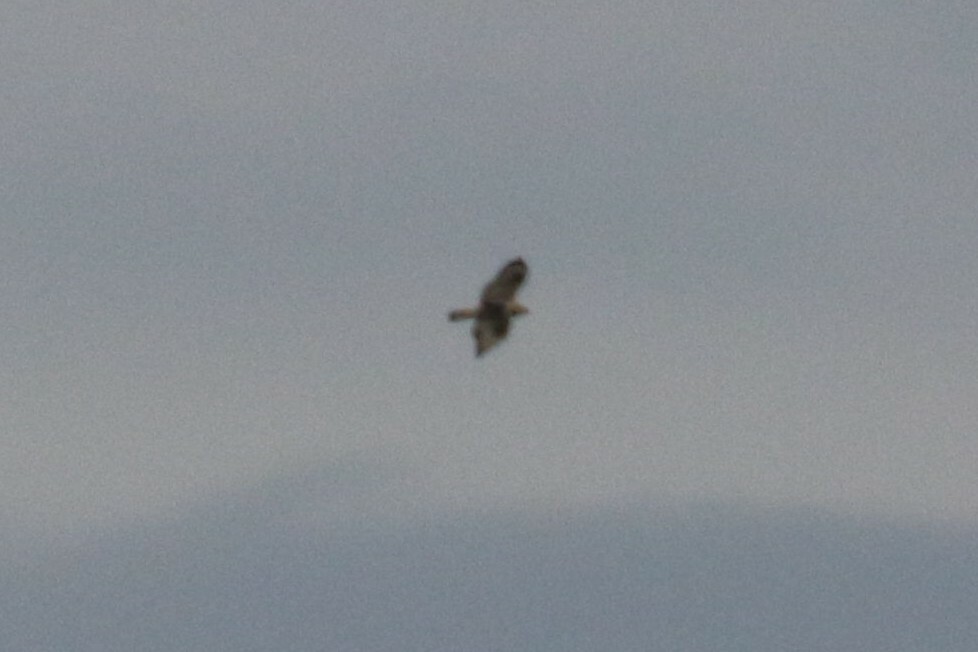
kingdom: Animalia
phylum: Chordata
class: Aves
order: Accipitriformes
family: Accipitridae
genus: Buteo
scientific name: Buteo lagopus
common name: Rough-legged buzzard
